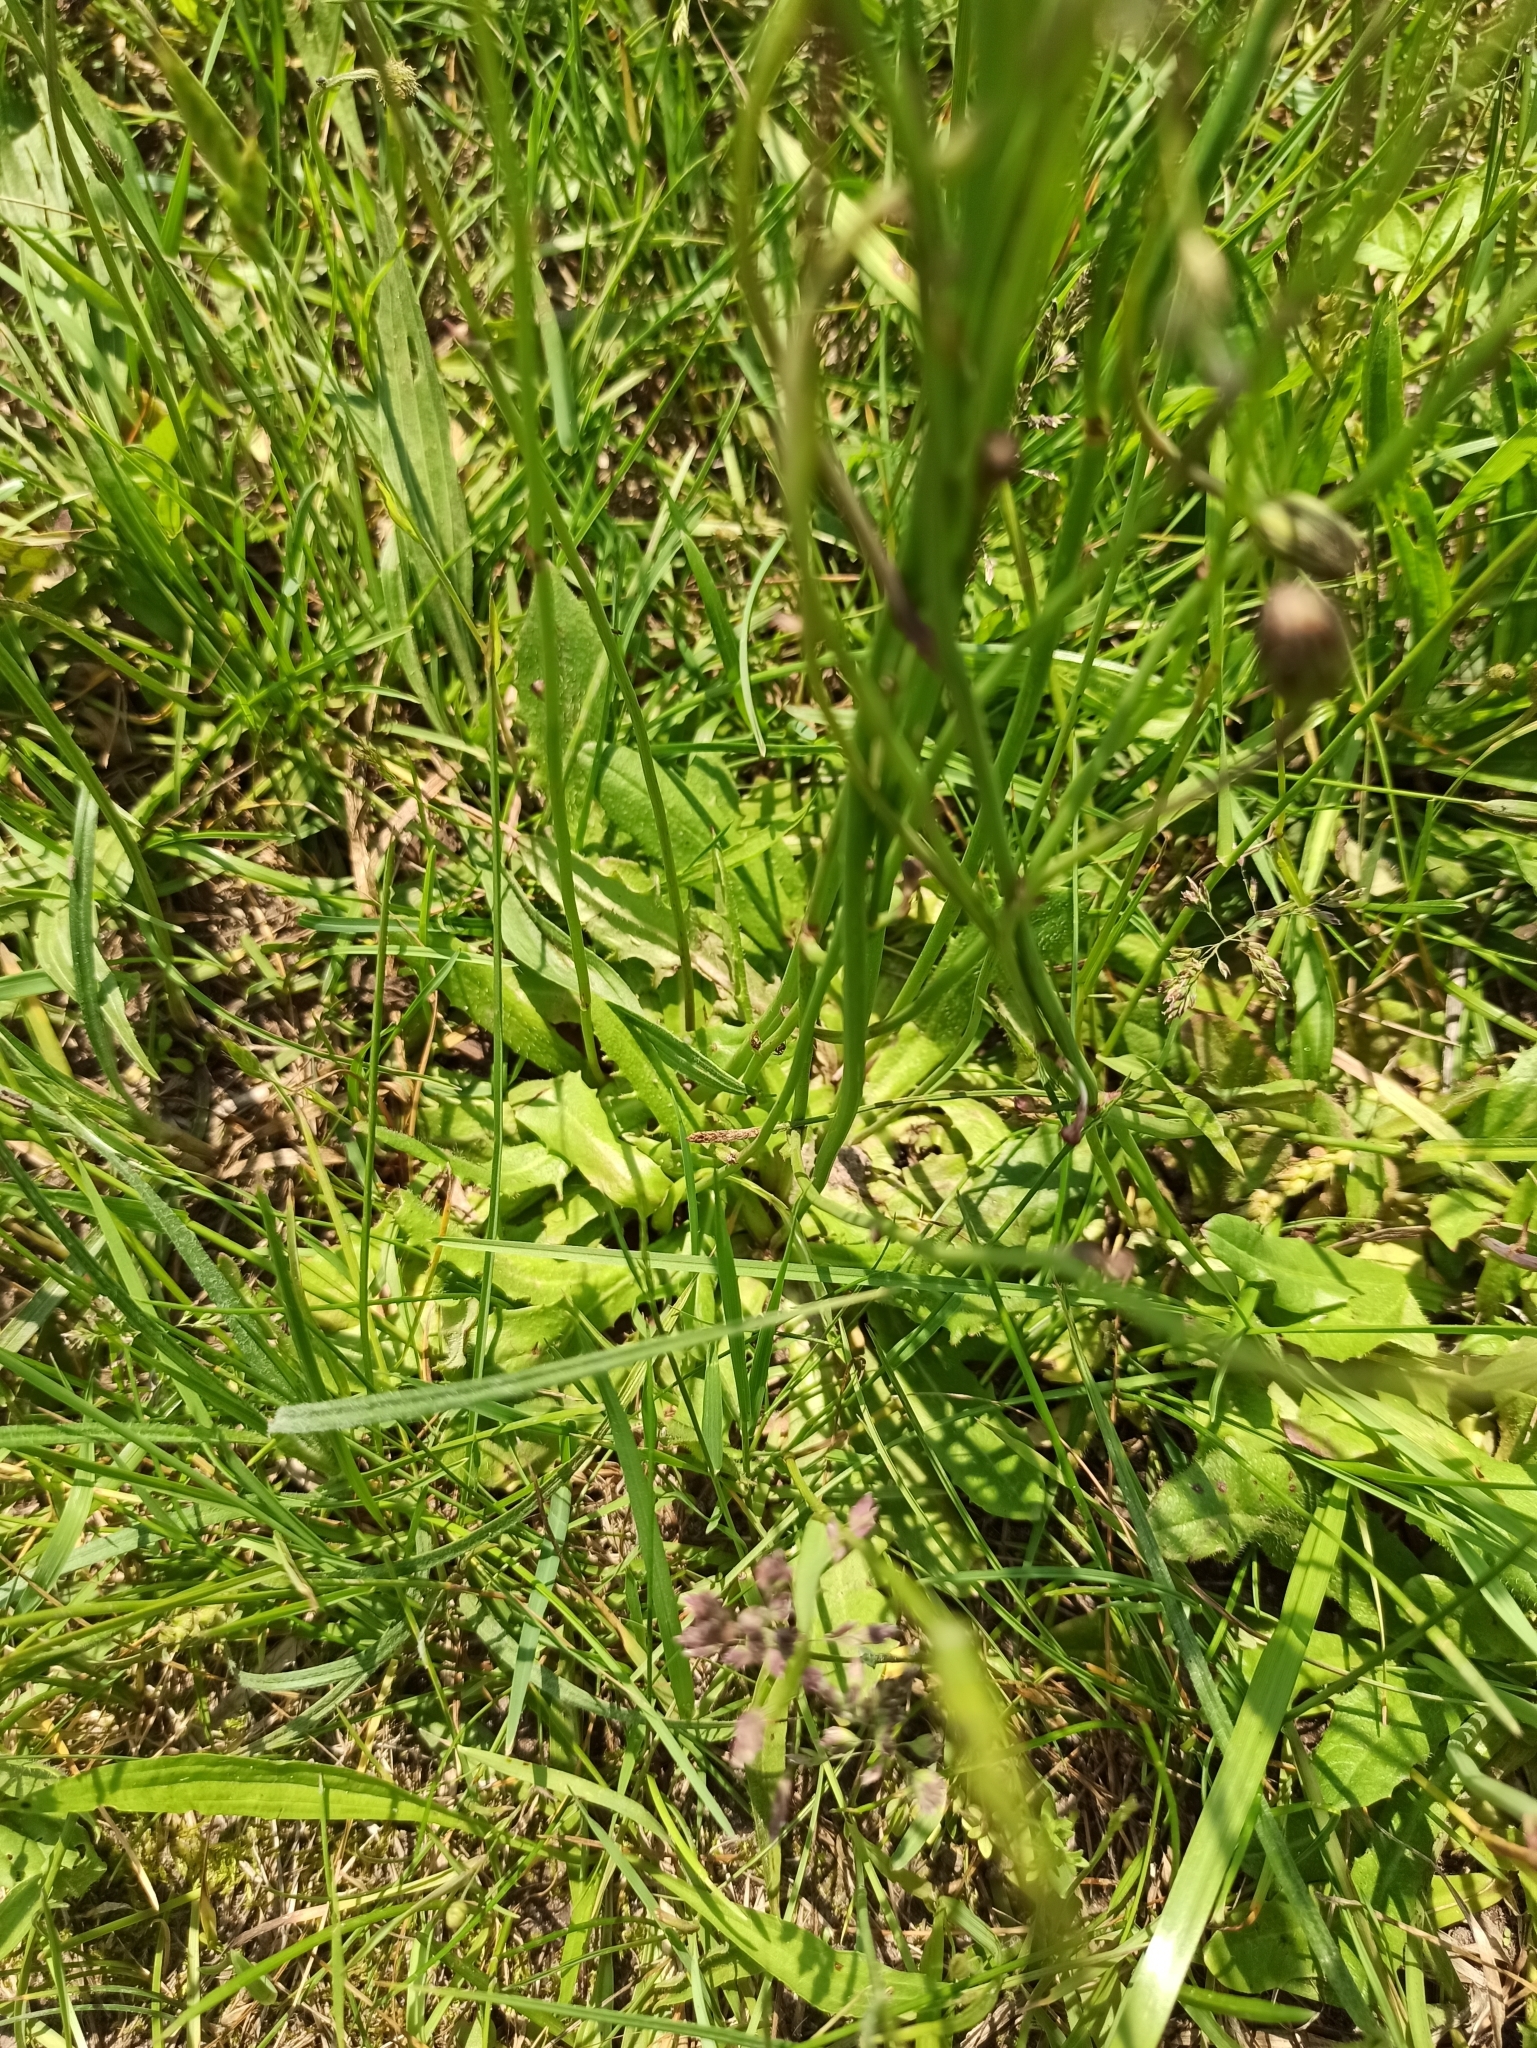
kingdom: Plantae
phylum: Tracheophyta
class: Magnoliopsida
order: Asterales
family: Asteraceae
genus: Hypochaeris
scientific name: Hypochaeris radicata
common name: Flatweed
